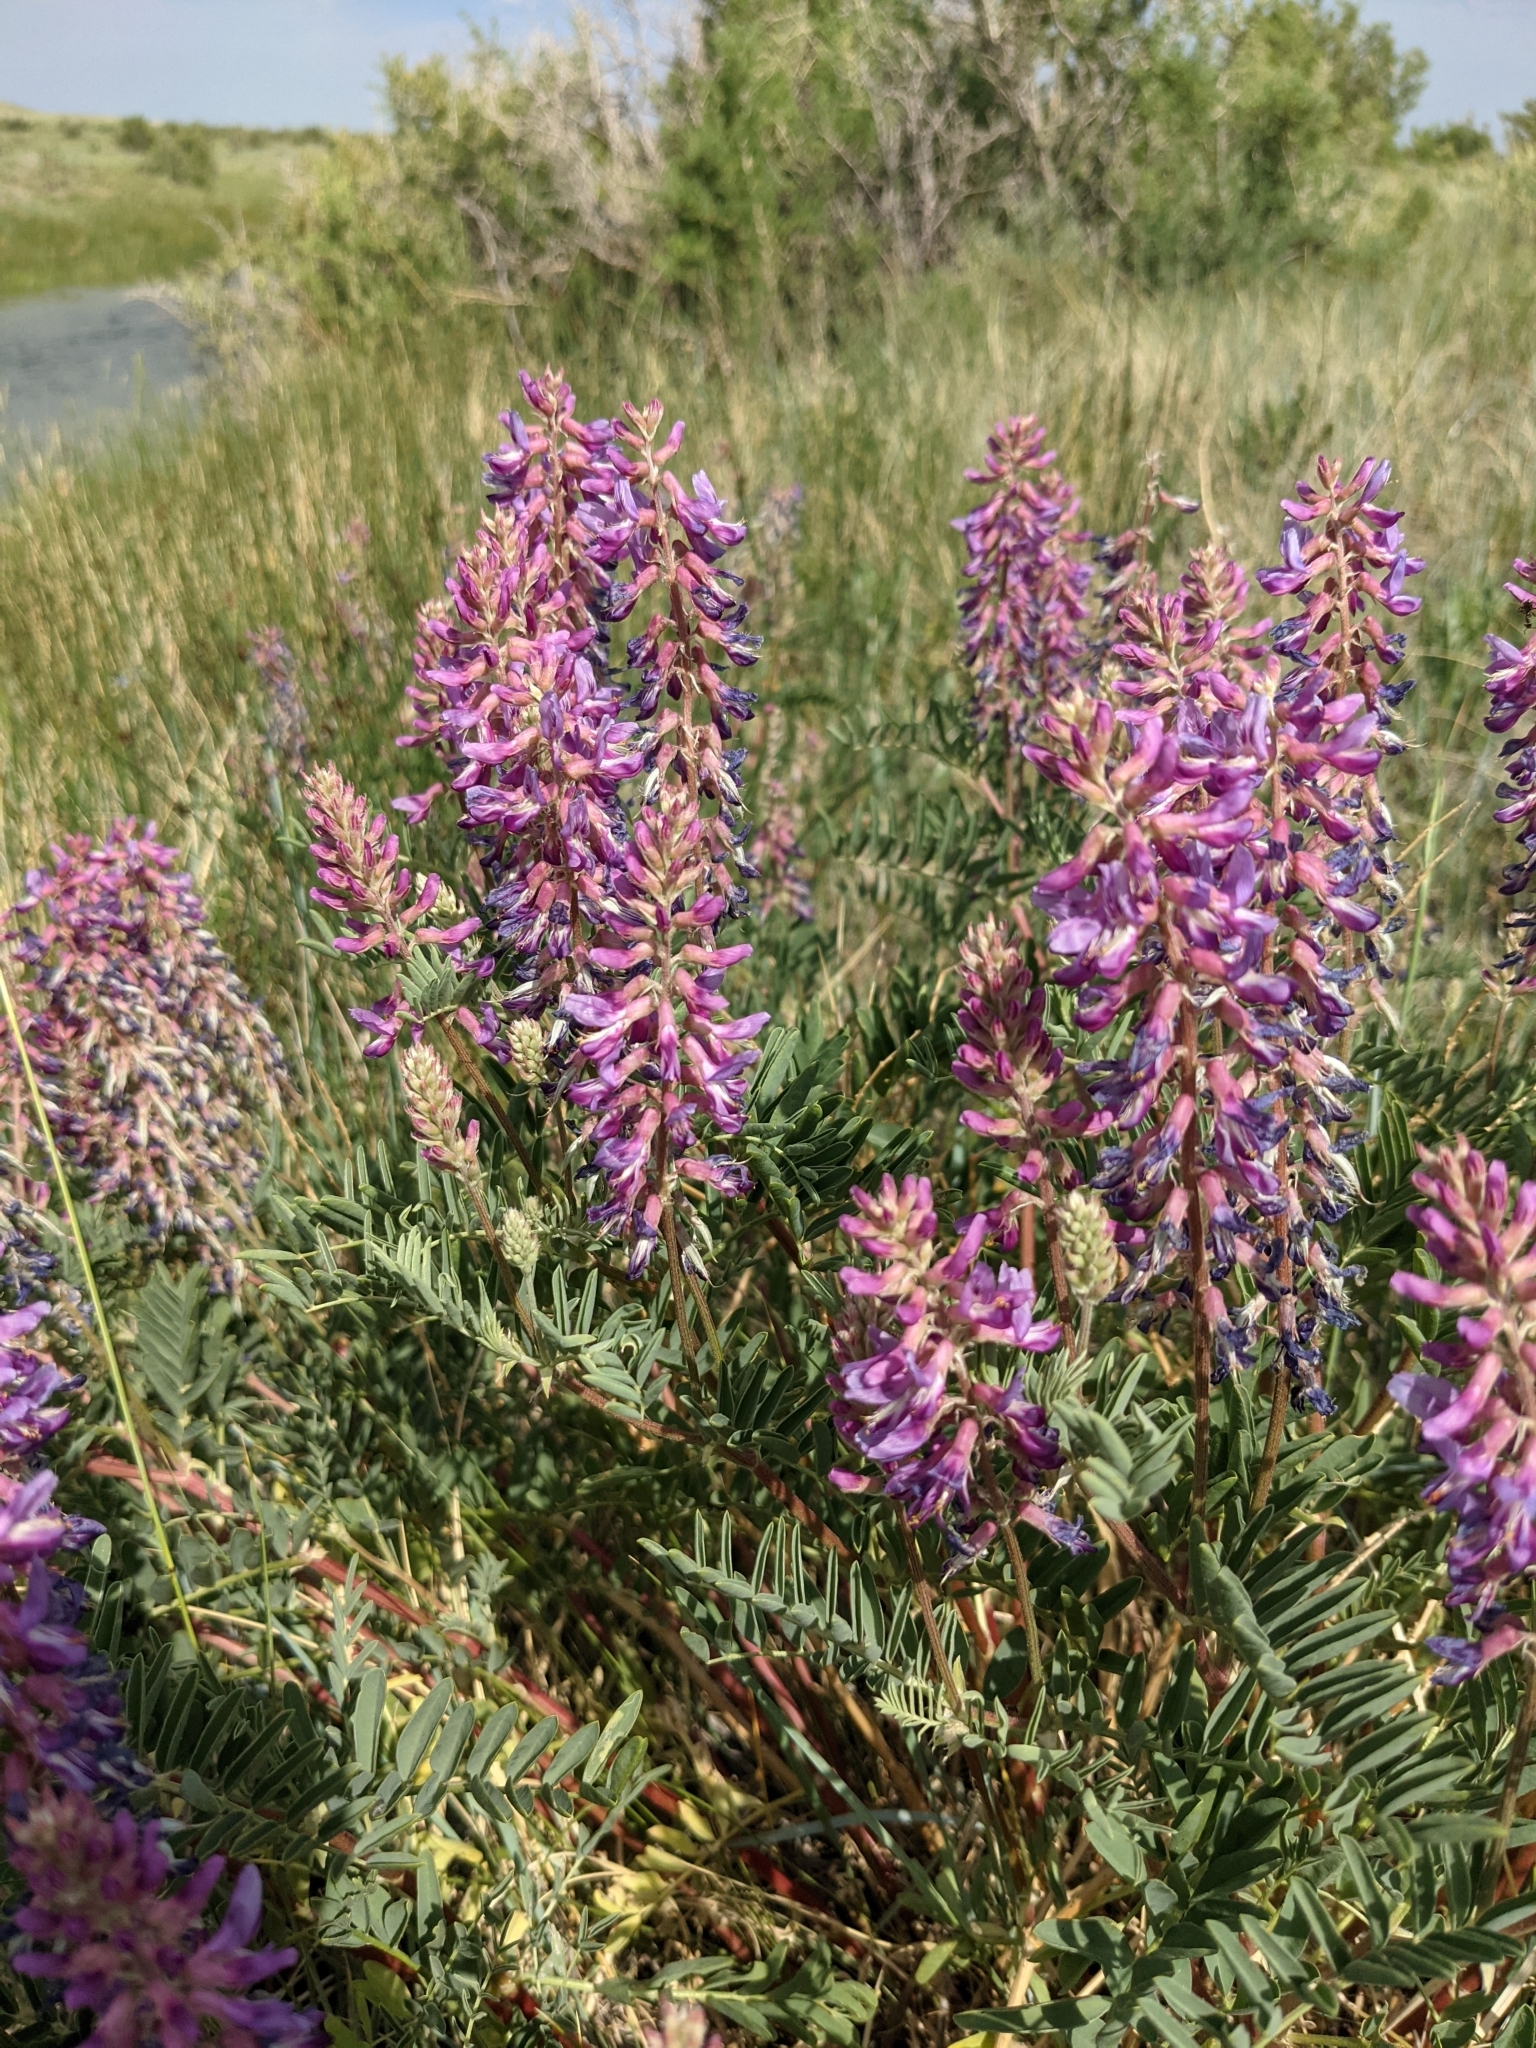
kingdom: Plantae
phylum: Tracheophyta
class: Magnoliopsida
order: Fabales
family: Fabaceae
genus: Astragalus
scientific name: Astragalus bisulcatus
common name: Two-groove milk-vetch
